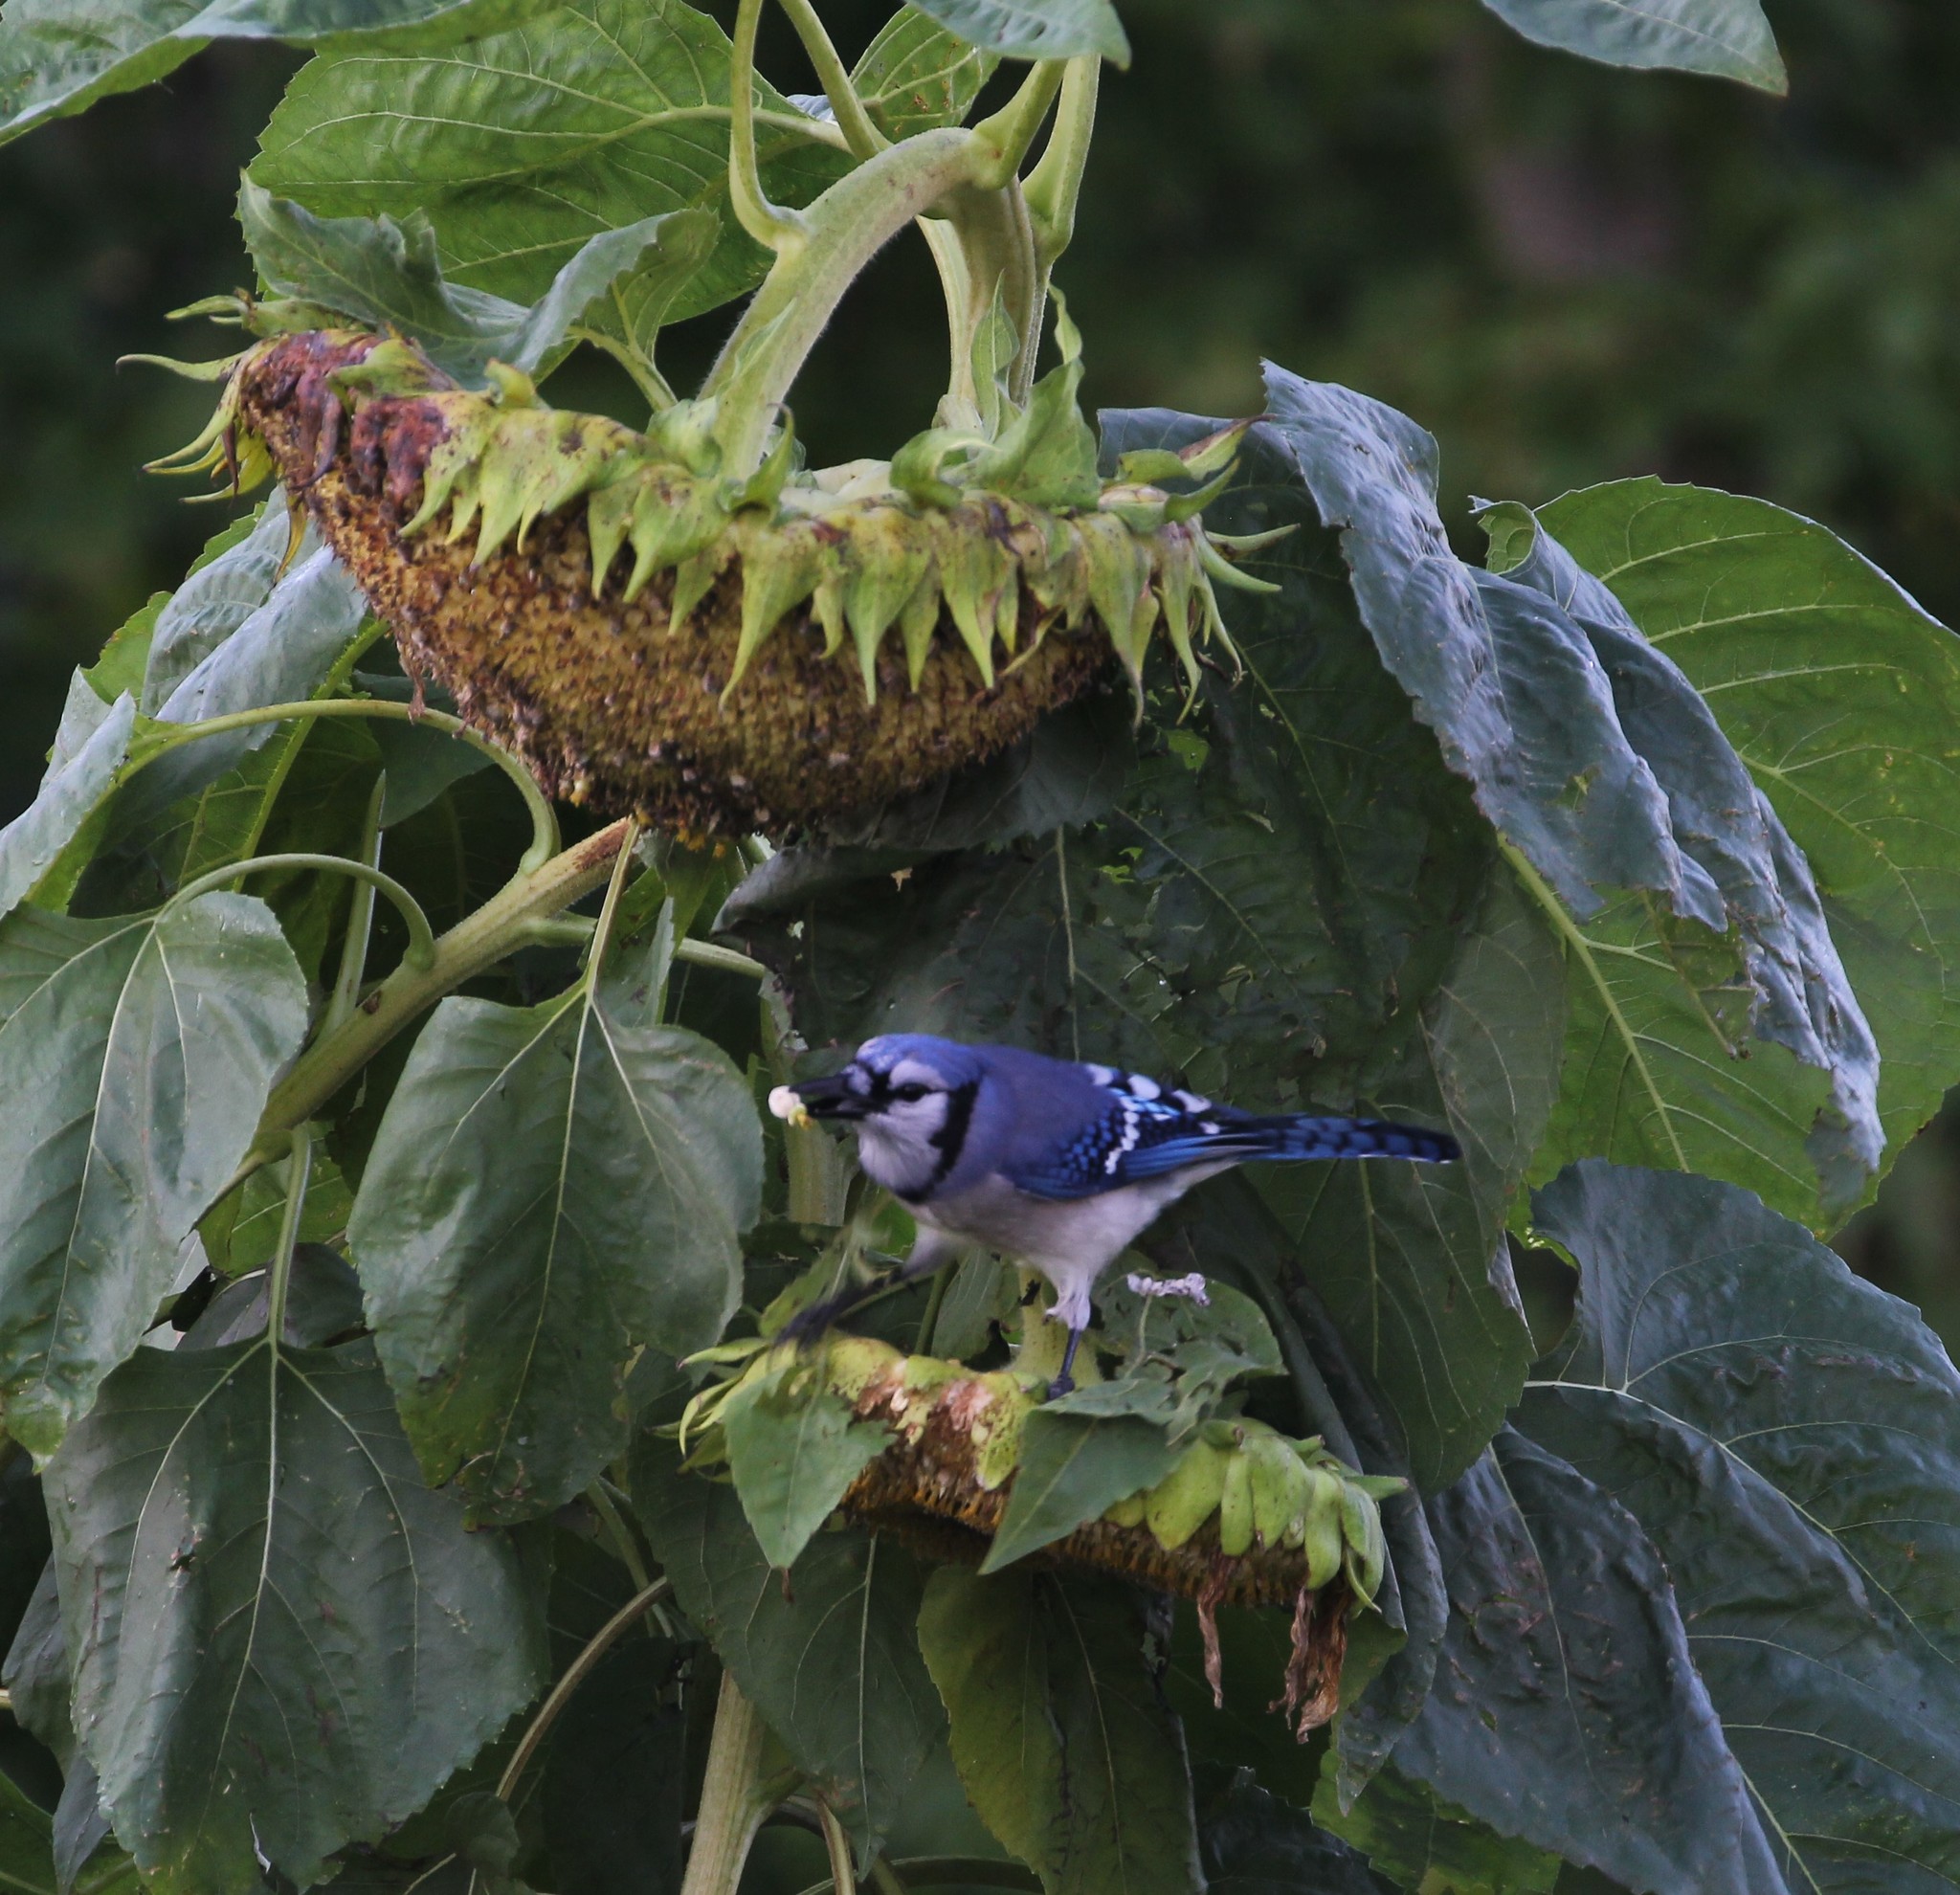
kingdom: Animalia
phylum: Chordata
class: Aves
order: Passeriformes
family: Corvidae
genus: Cyanocitta
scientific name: Cyanocitta cristata
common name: Blue jay
